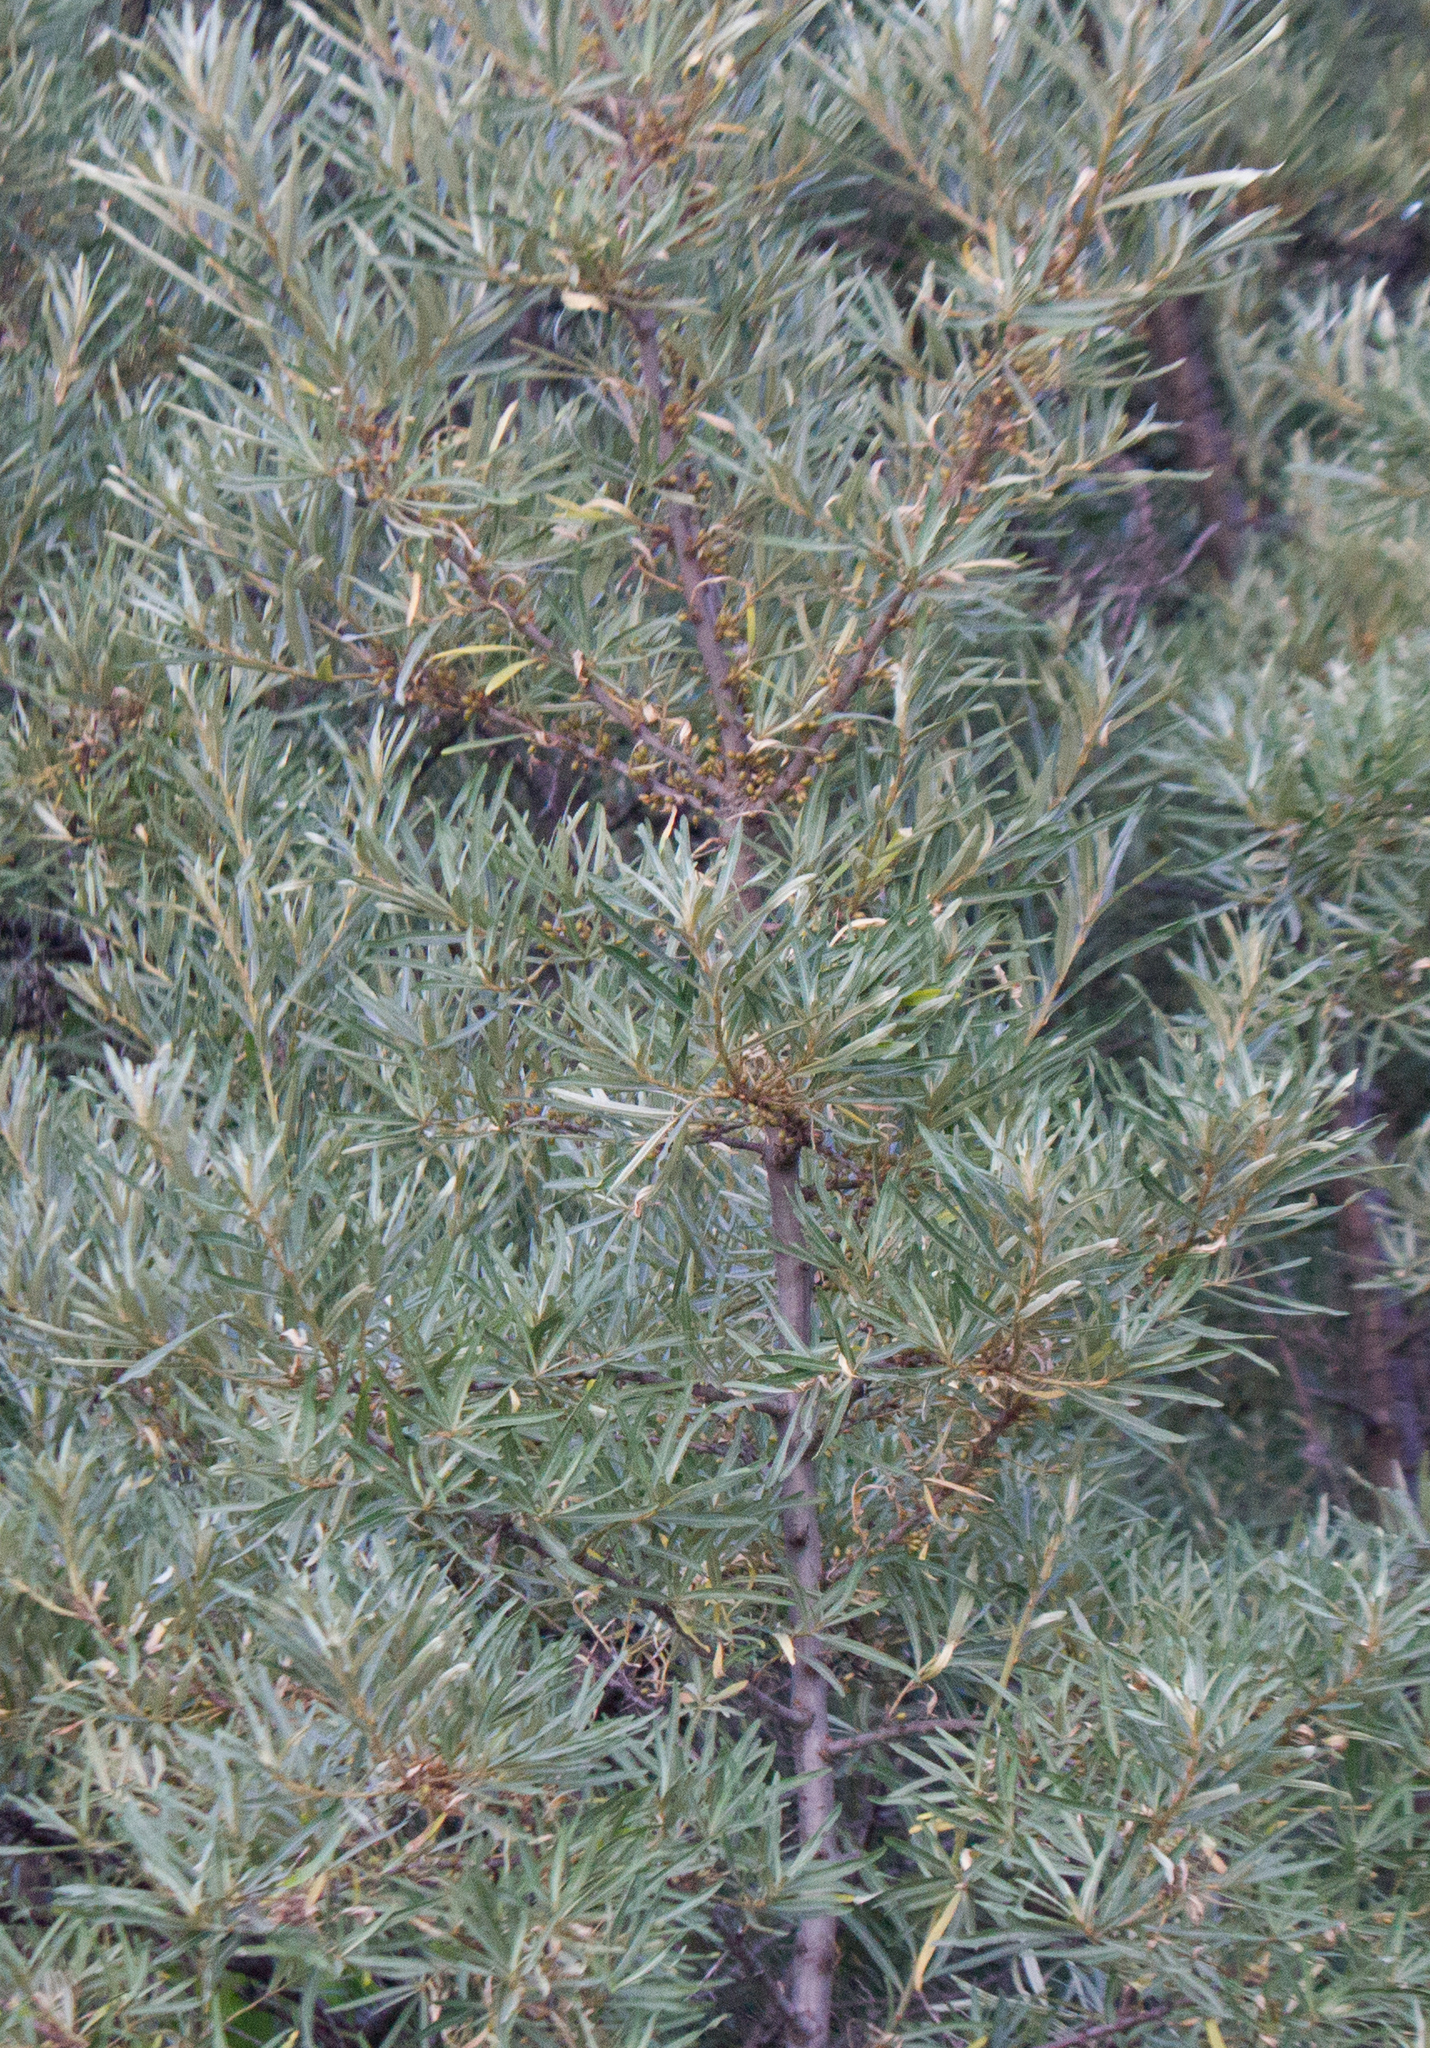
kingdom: Plantae
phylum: Tracheophyta
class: Magnoliopsida
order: Rosales
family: Elaeagnaceae
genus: Hippophae
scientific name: Hippophae rhamnoides
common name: Sea-buckthorn
